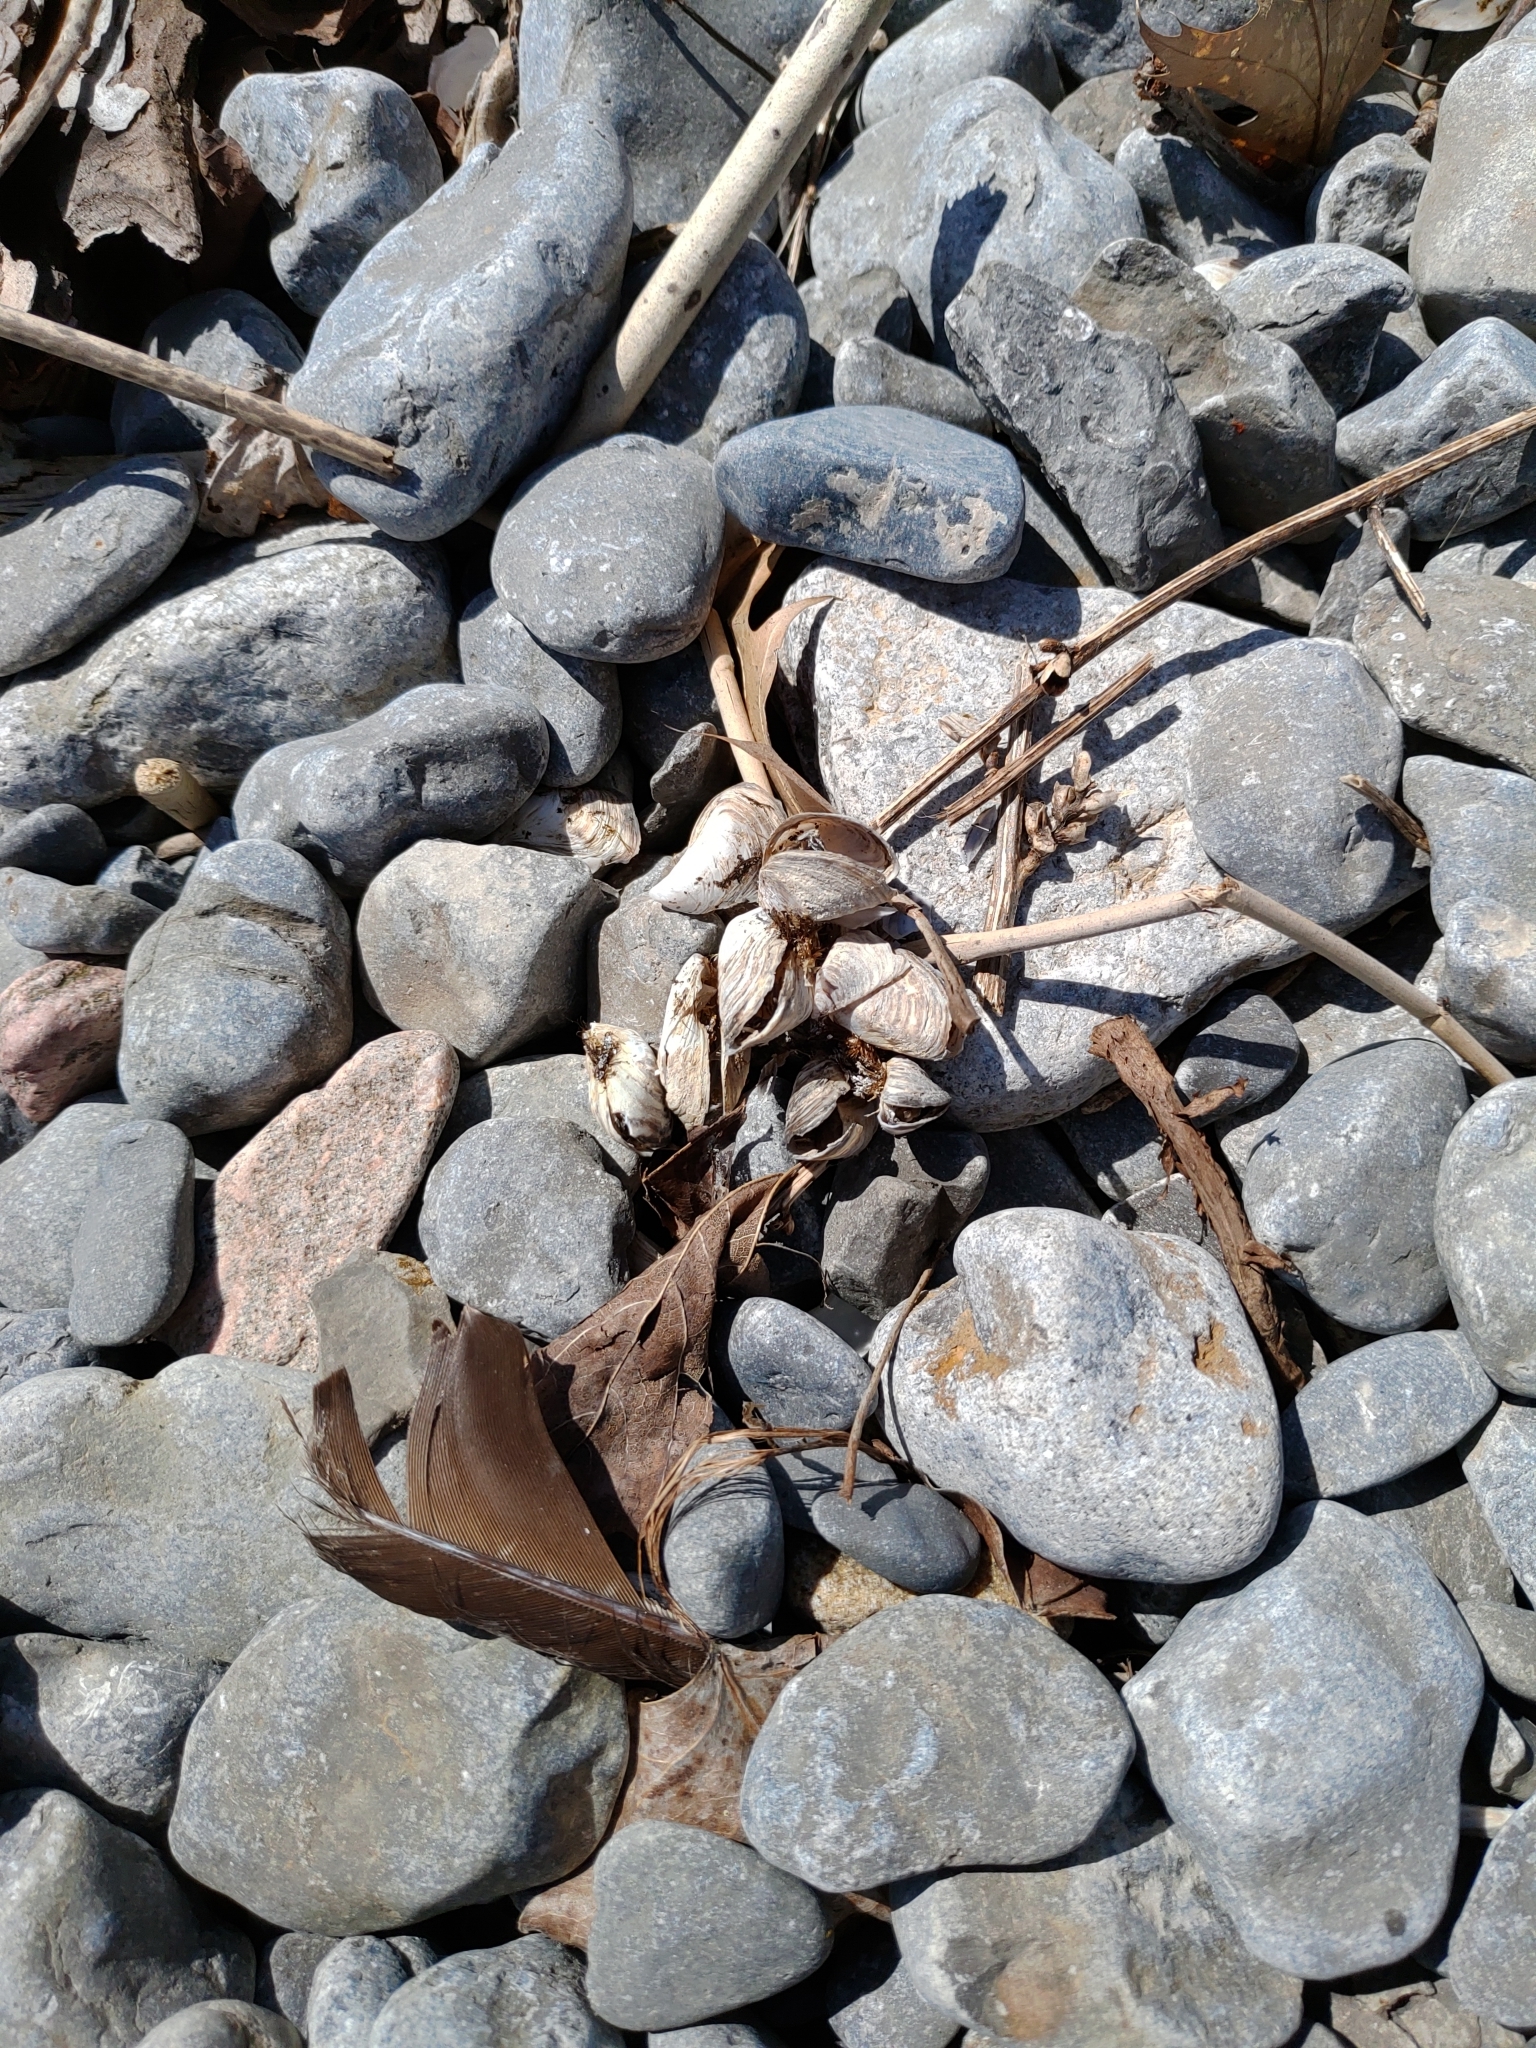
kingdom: Animalia
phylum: Mollusca
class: Bivalvia
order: Myida
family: Dreissenidae
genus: Dreissena
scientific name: Dreissena bugensis
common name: Quagga mussel
